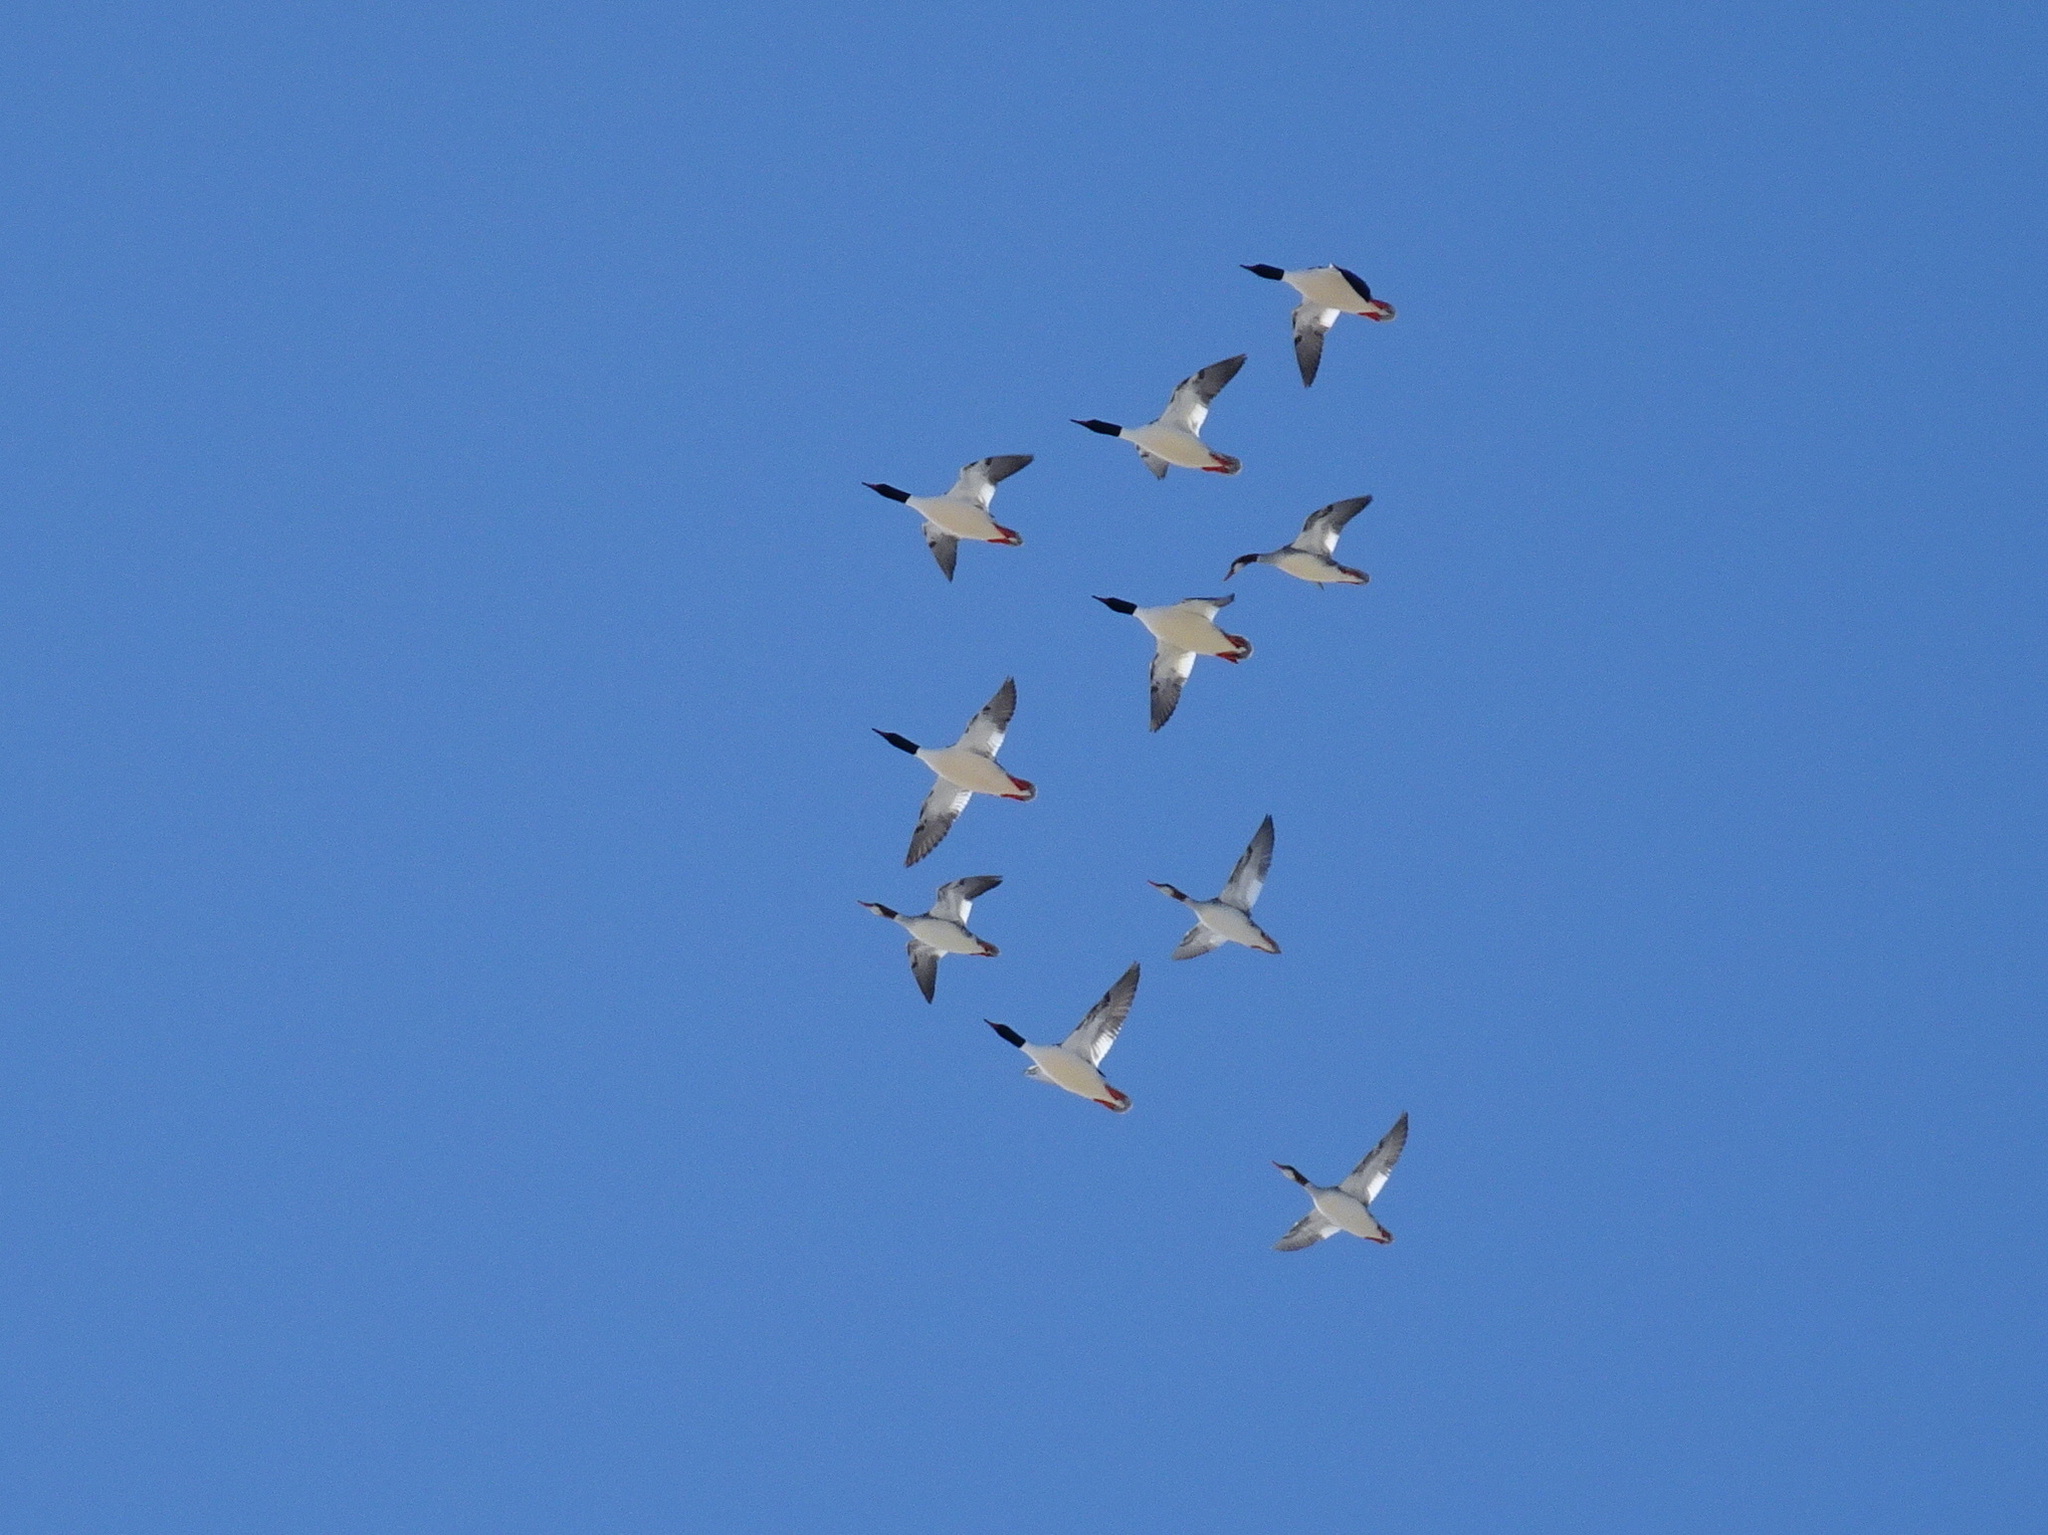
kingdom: Animalia
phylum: Chordata
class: Aves
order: Anseriformes
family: Anatidae
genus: Mergus
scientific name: Mergus merganser
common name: Common merganser
